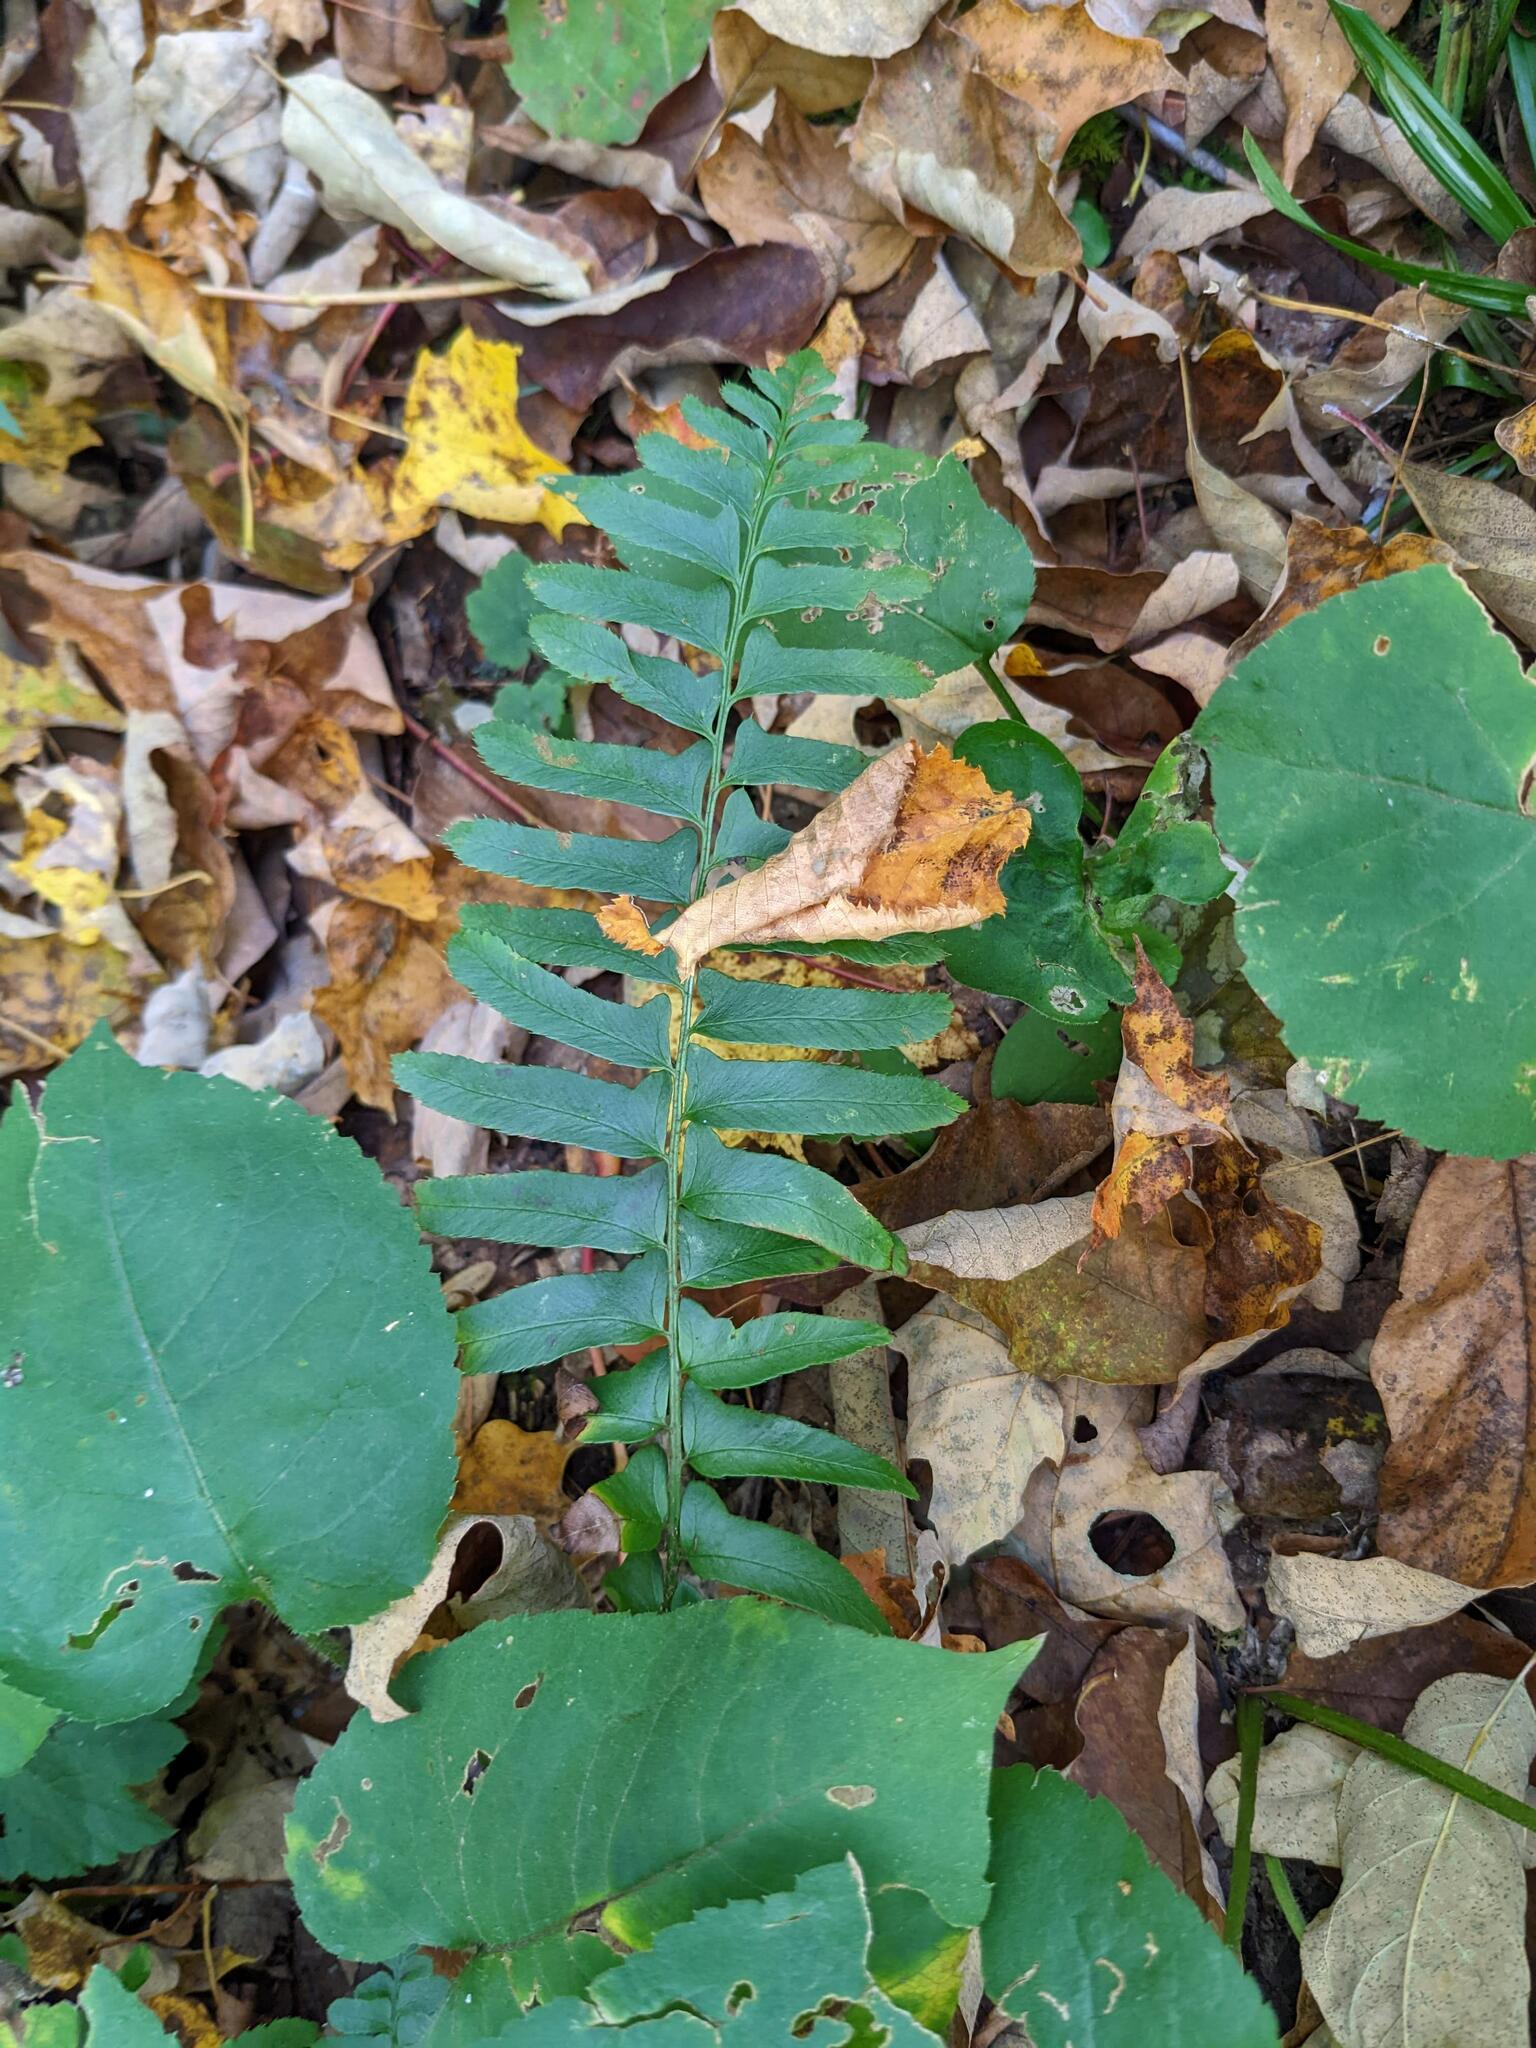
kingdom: Plantae
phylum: Tracheophyta
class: Polypodiopsida
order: Polypodiales
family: Dryopteridaceae
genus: Polystichum
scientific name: Polystichum acrostichoides
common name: Christmas fern
